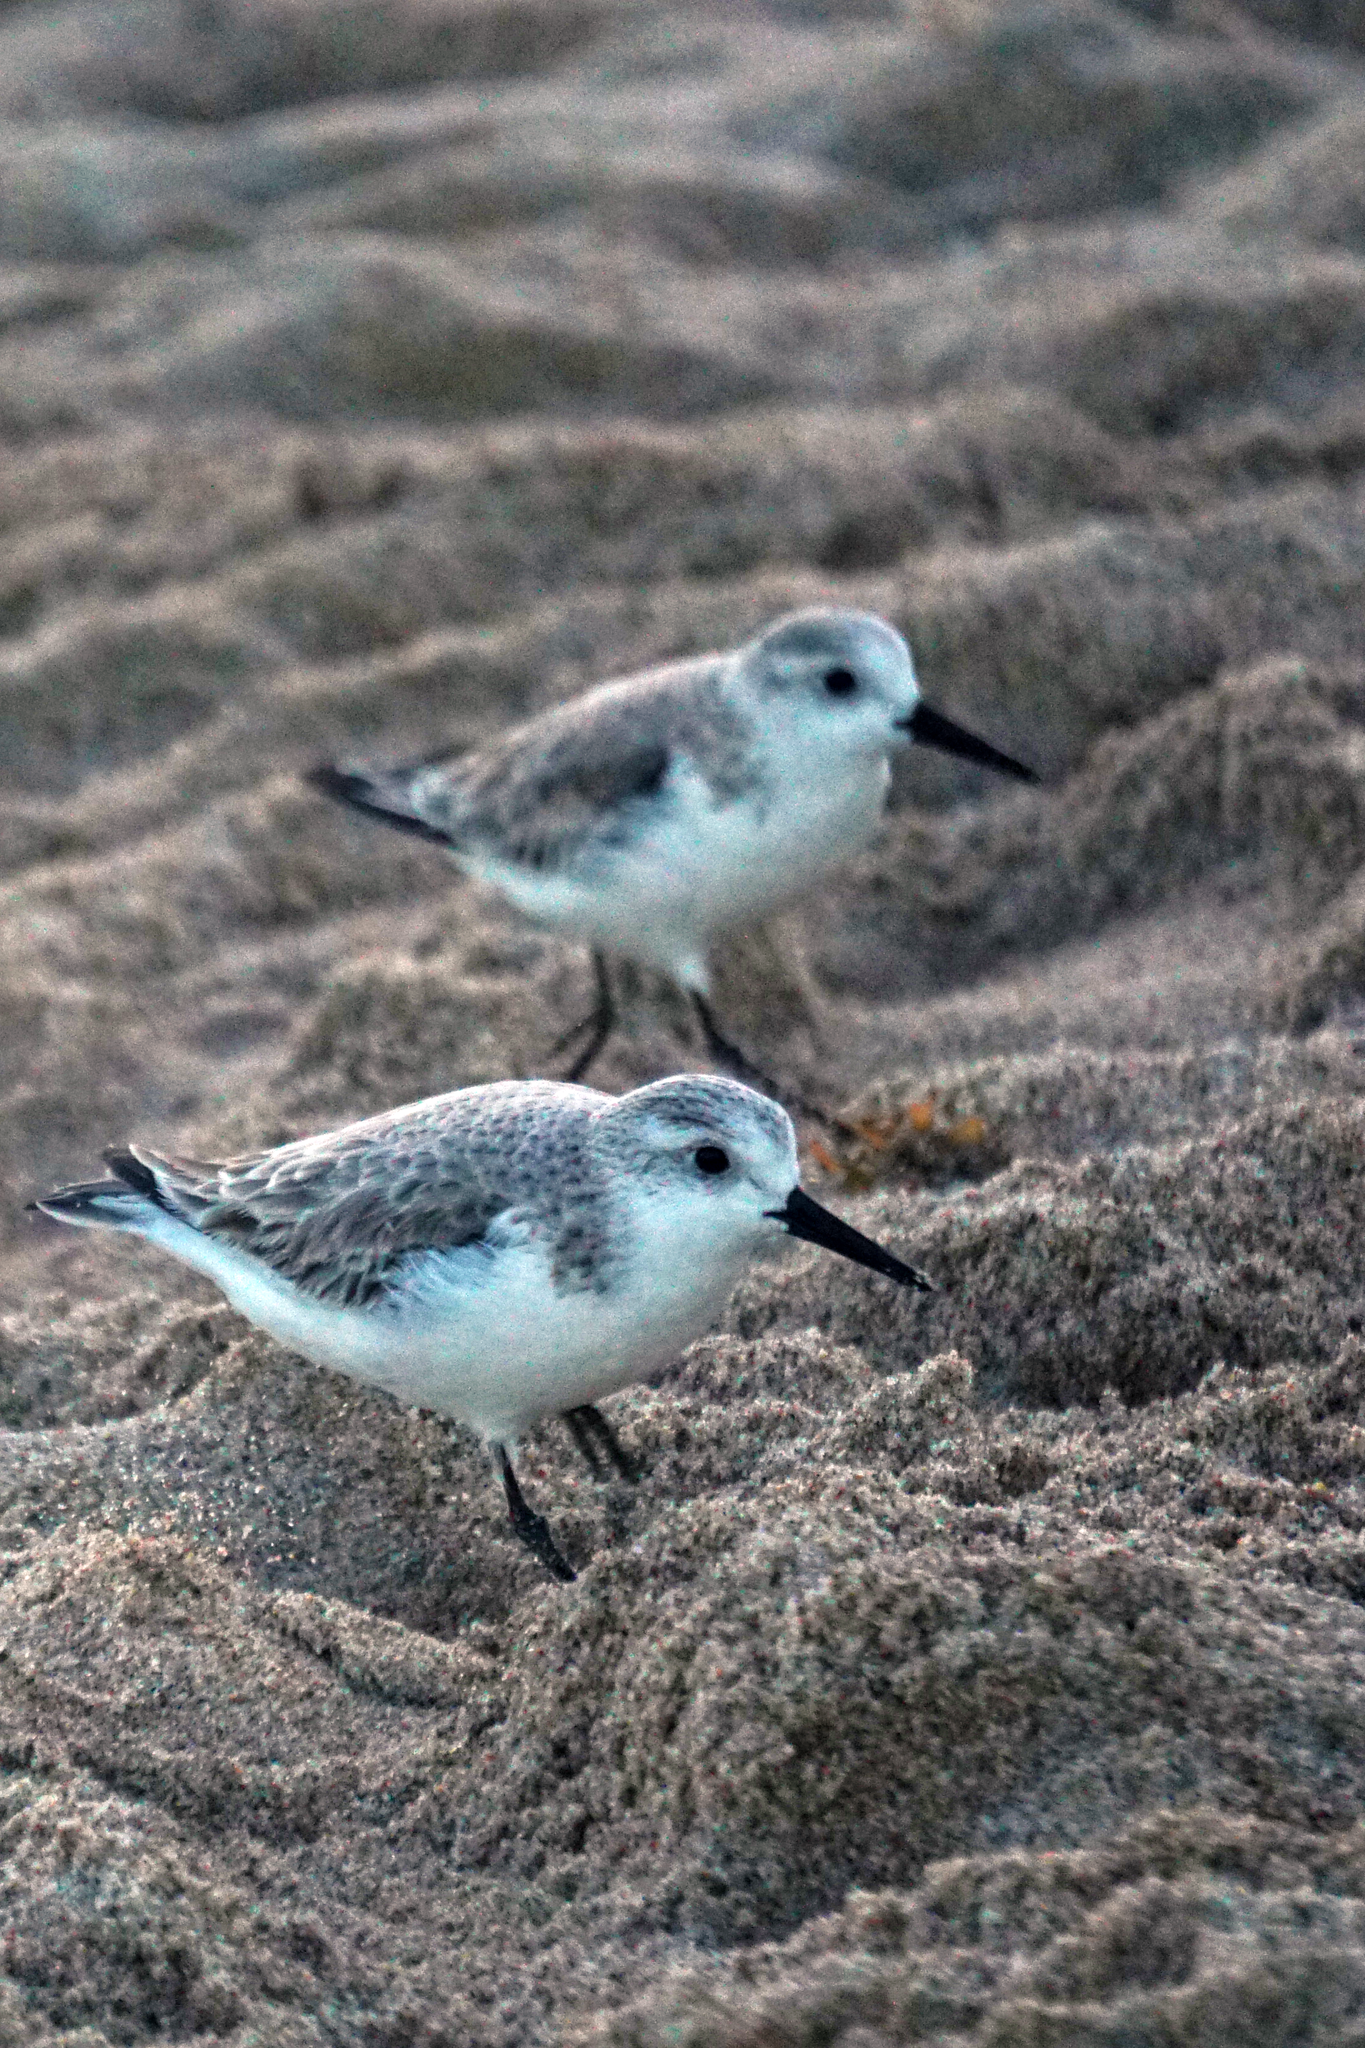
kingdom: Animalia
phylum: Chordata
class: Aves
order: Charadriiformes
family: Scolopacidae
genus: Calidris
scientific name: Calidris alba
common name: Sanderling
